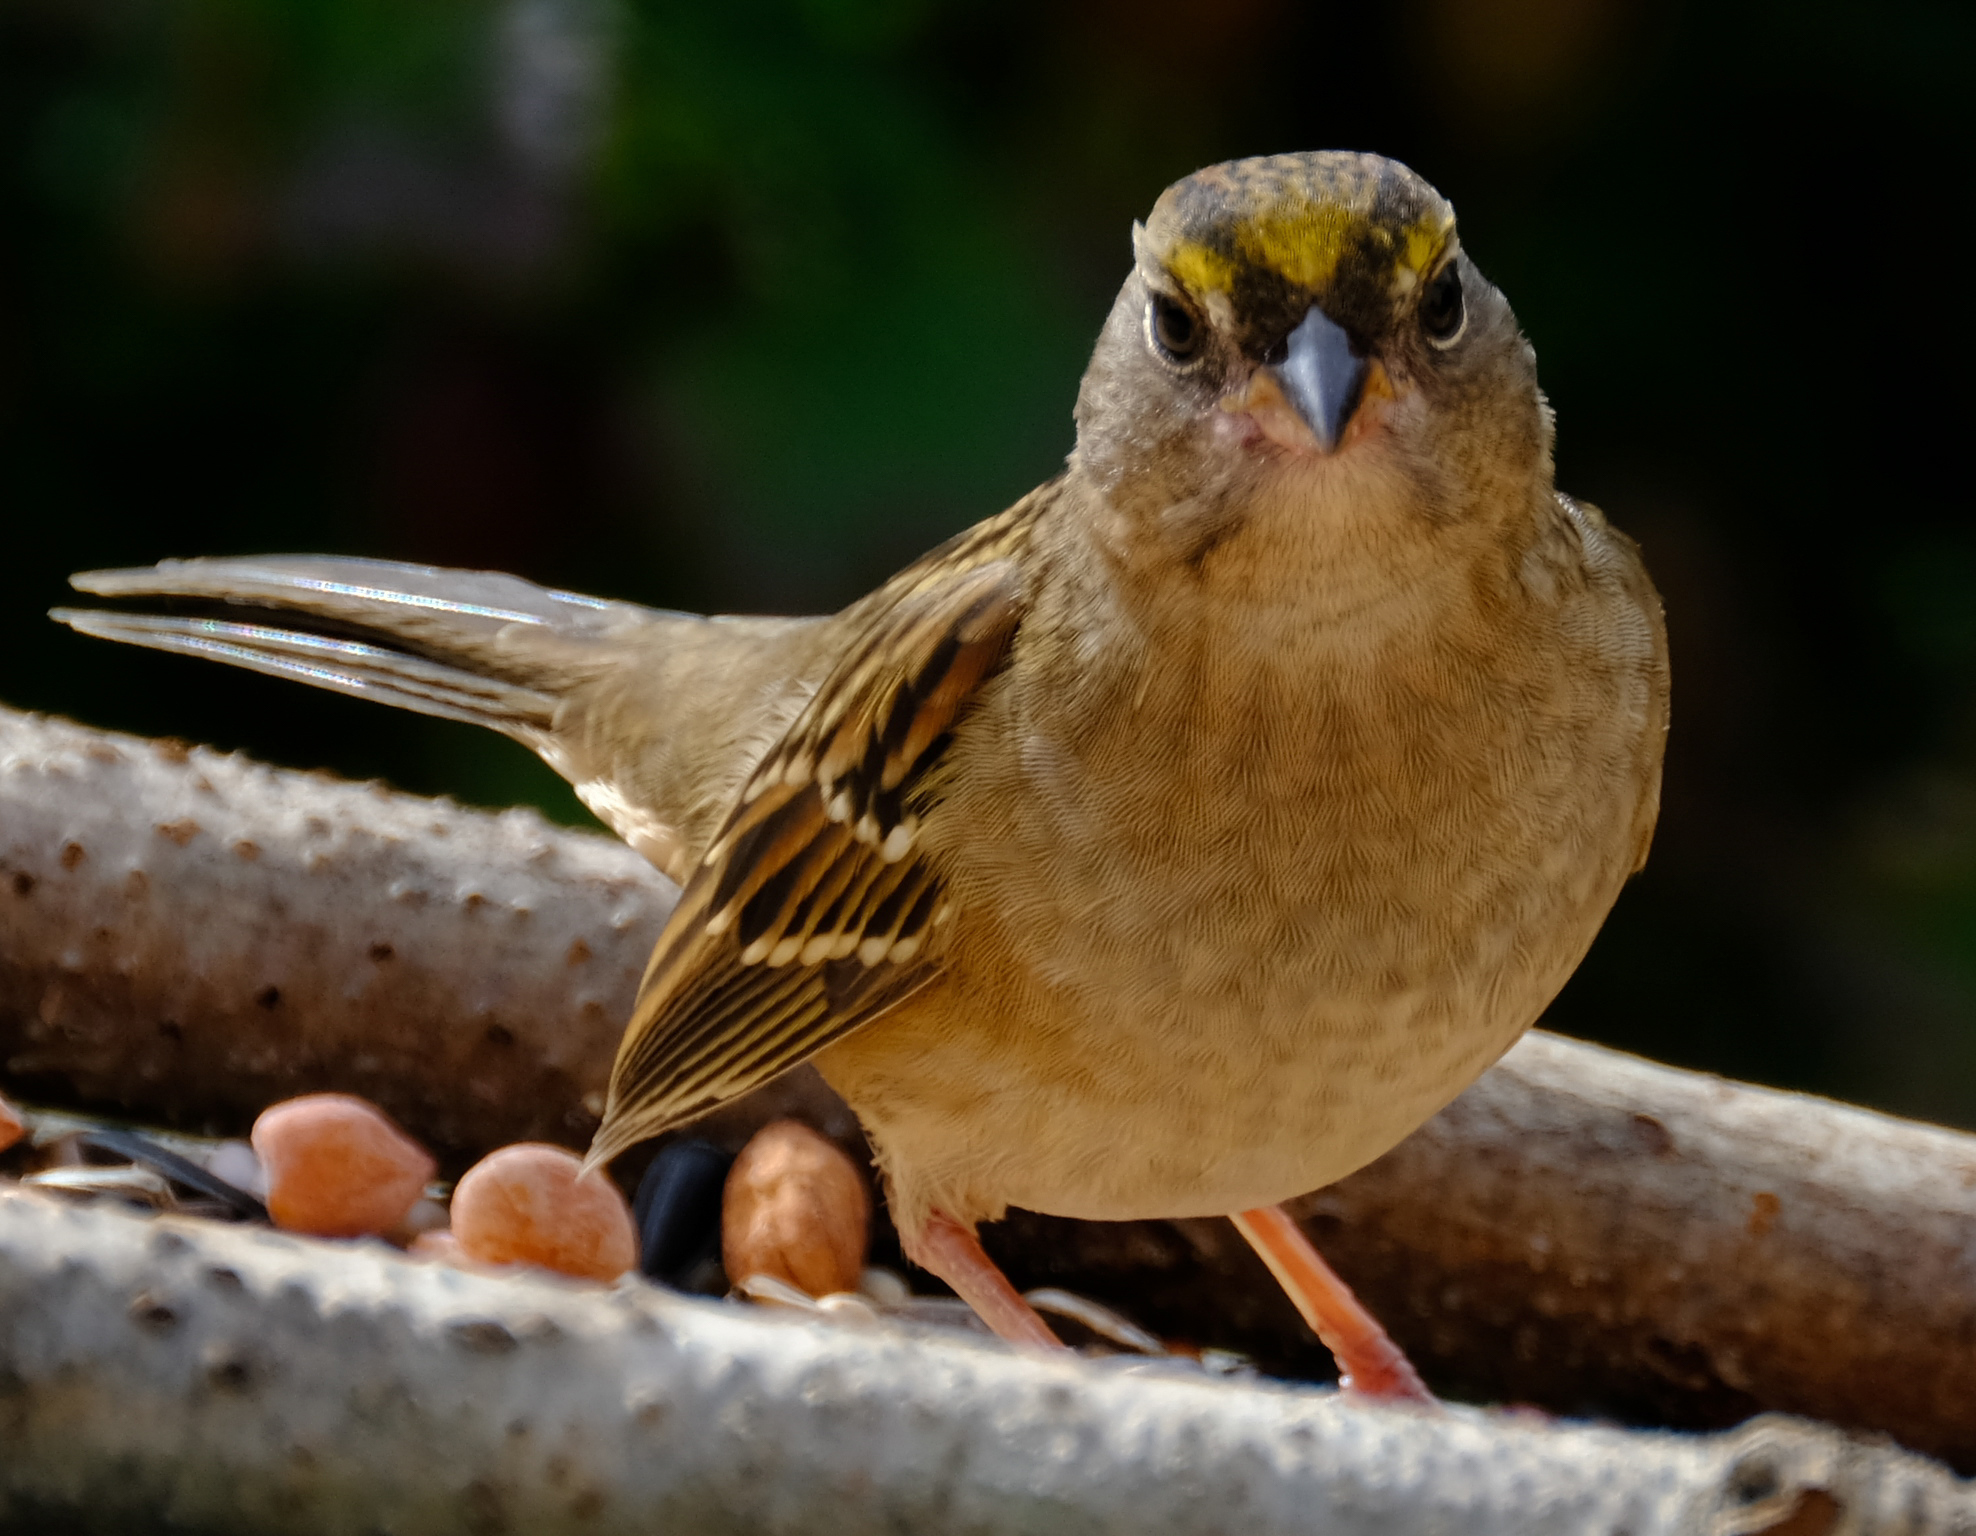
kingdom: Animalia
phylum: Chordata
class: Aves
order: Passeriformes
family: Passerellidae
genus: Zonotrichia
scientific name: Zonotrichia atricapilla
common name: Golden-crowned sparrow
